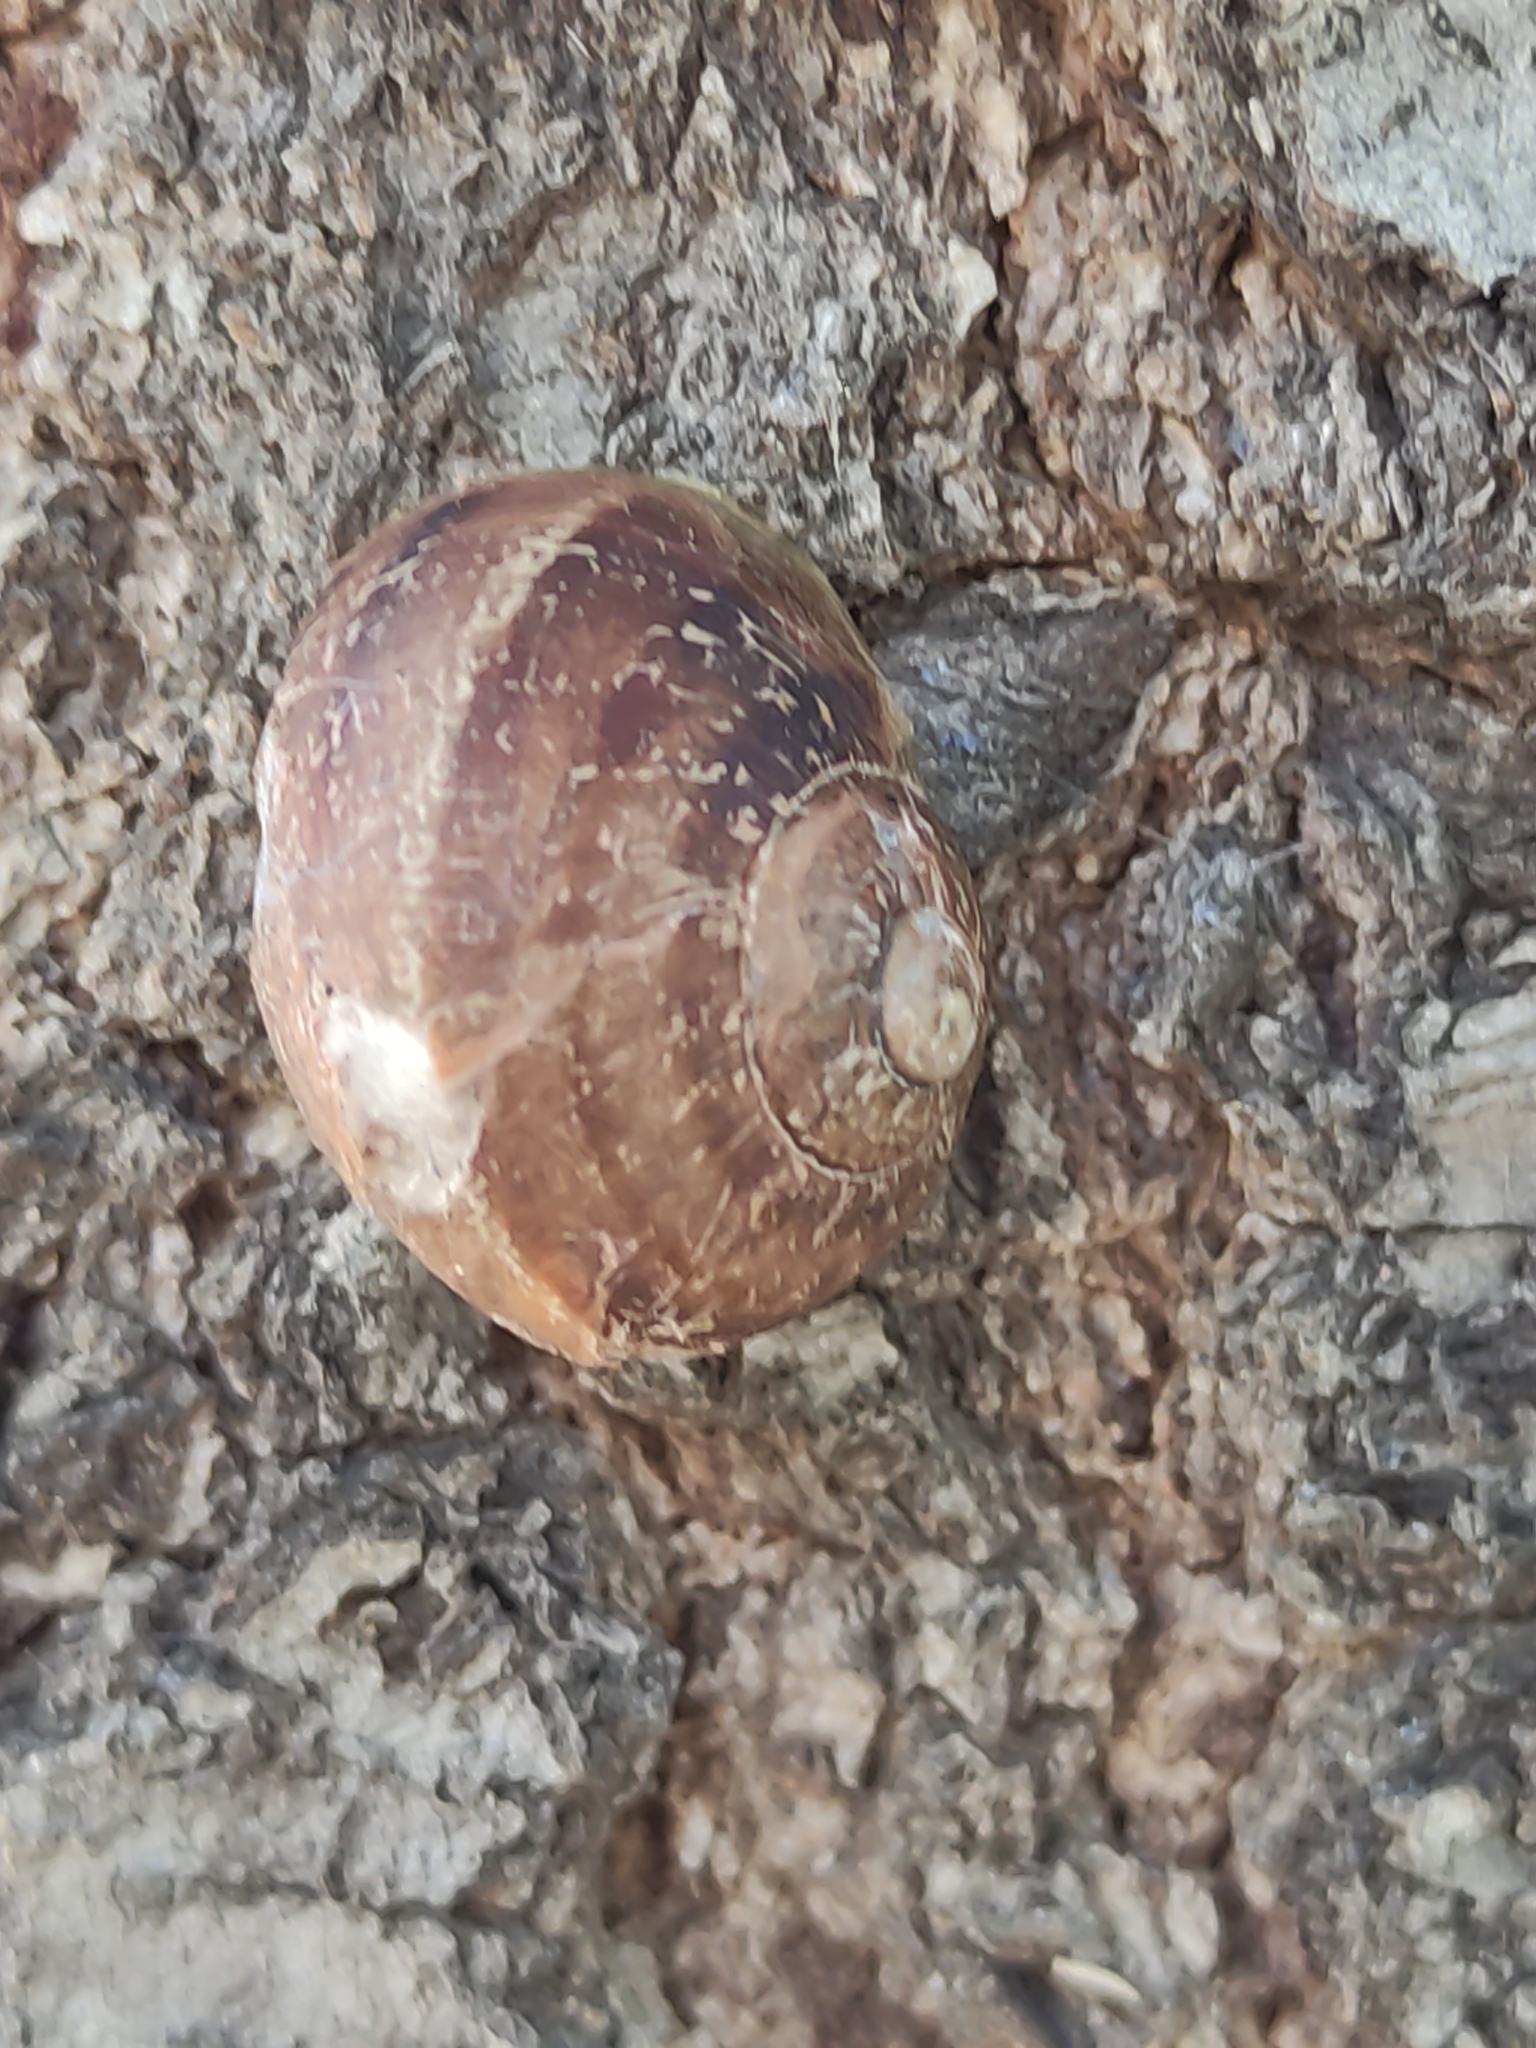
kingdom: Animalia
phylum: Mollusca
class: Gastropoda
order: Stylommatophora
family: Helicidae
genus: Cornu
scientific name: Cornu aspersum
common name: Brown garden snail
